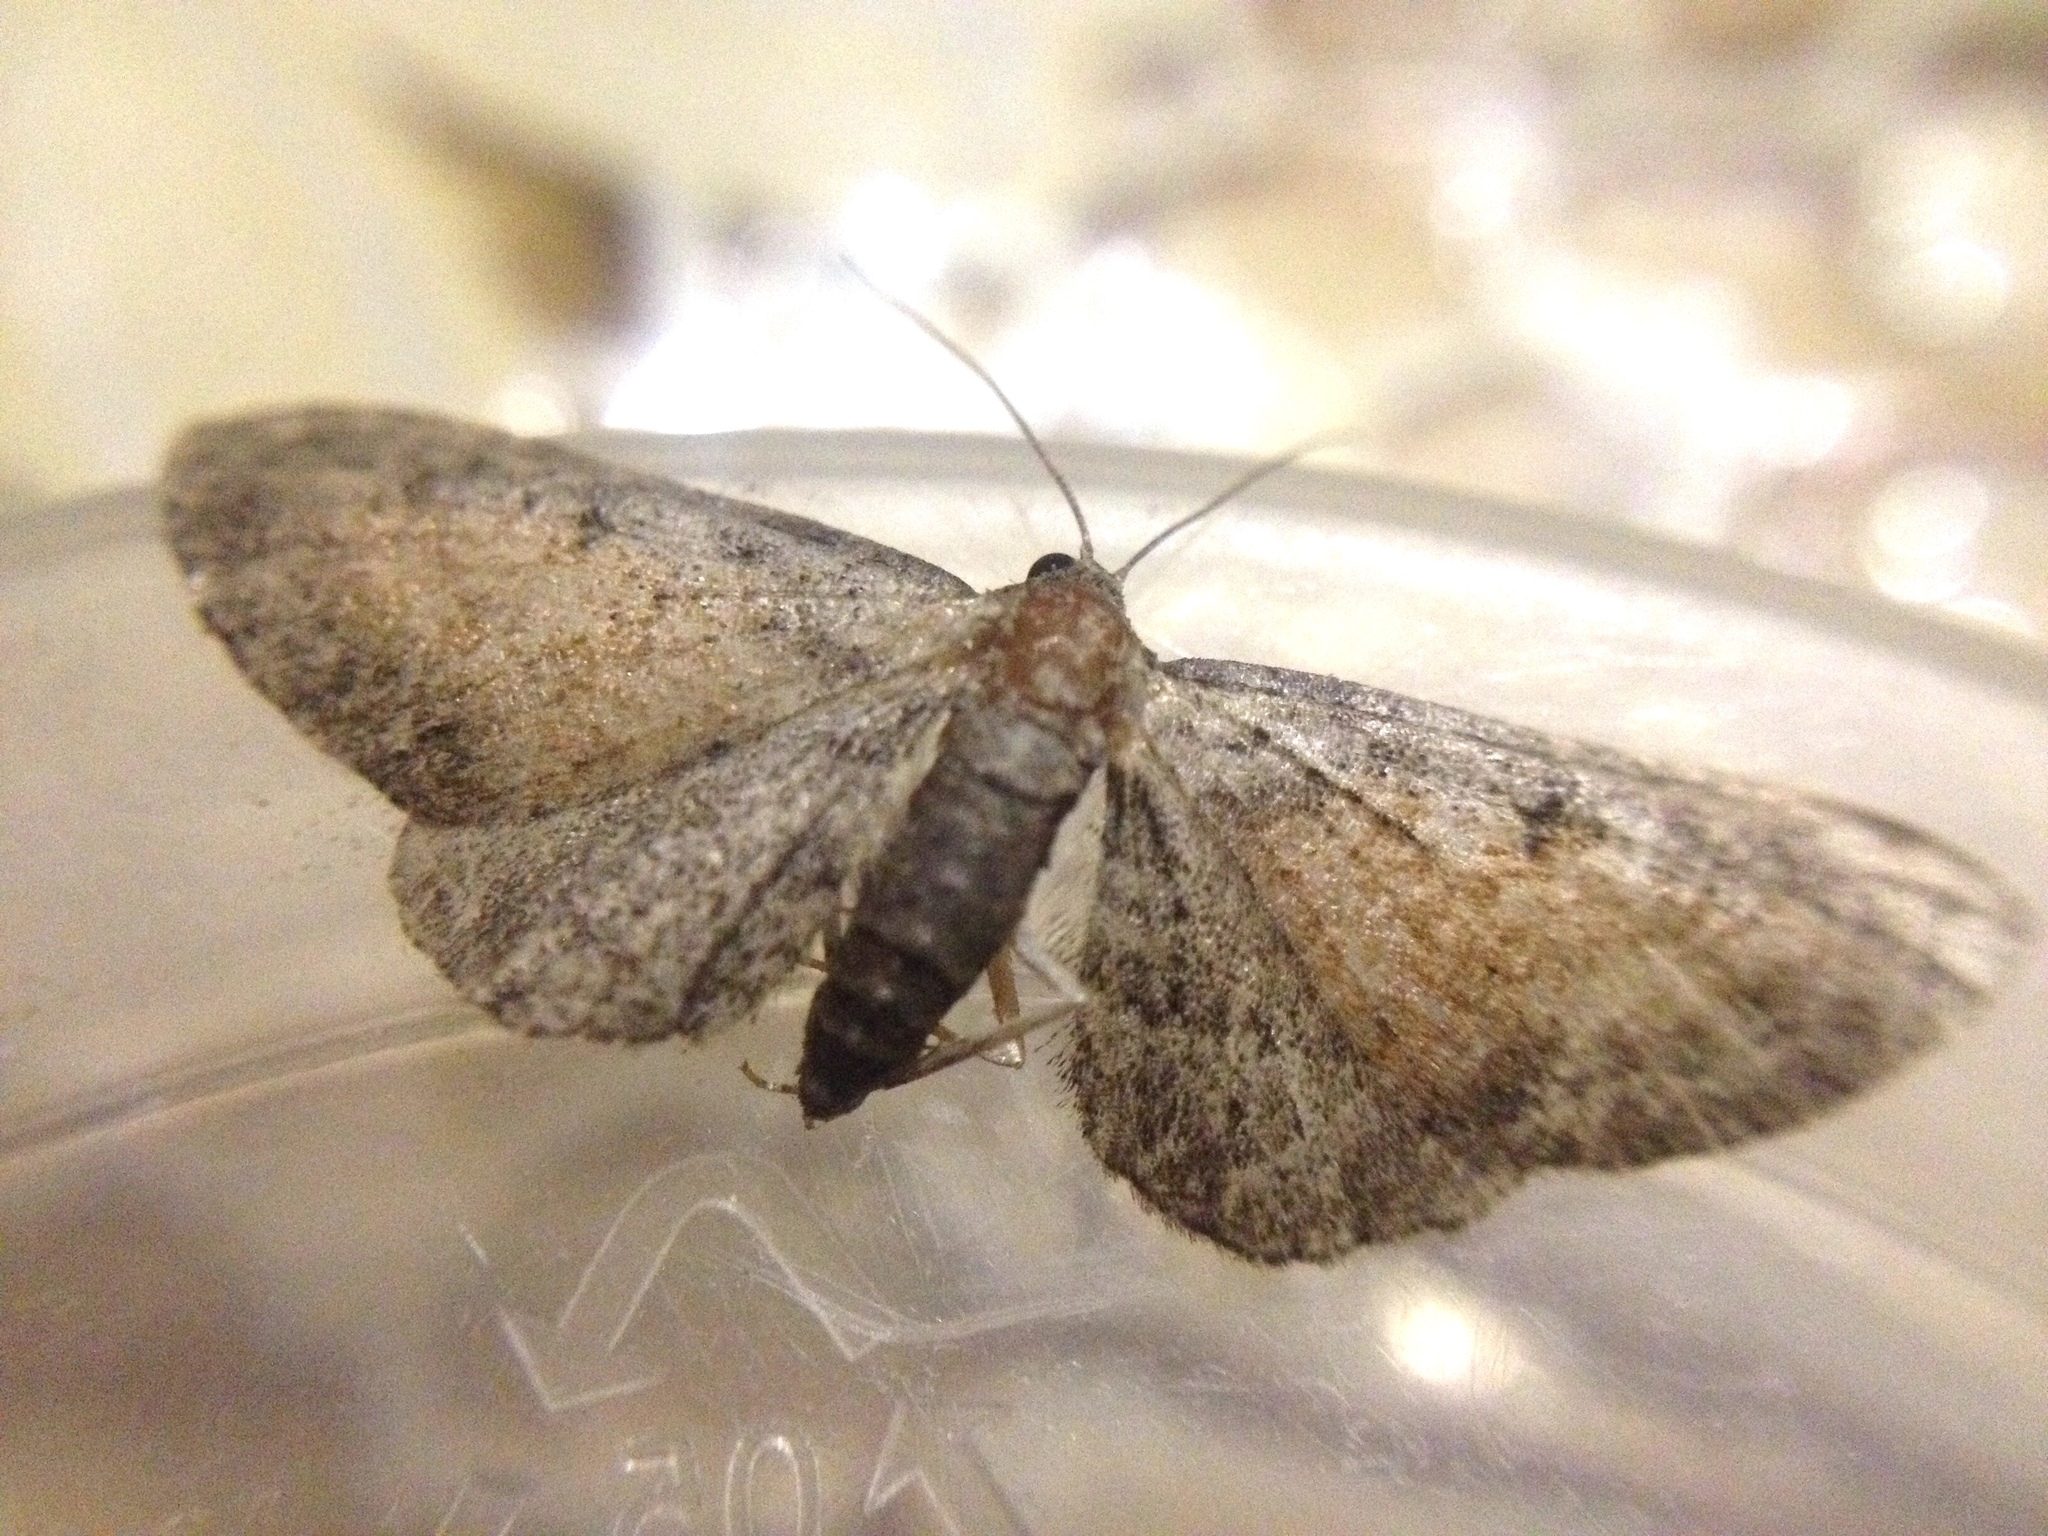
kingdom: Animalia
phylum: Arthropoda
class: Insecta
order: Lepidoptera
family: Geometridae
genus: Eupithecia
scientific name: Eupithecia icterata
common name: Tawny speckled pug
